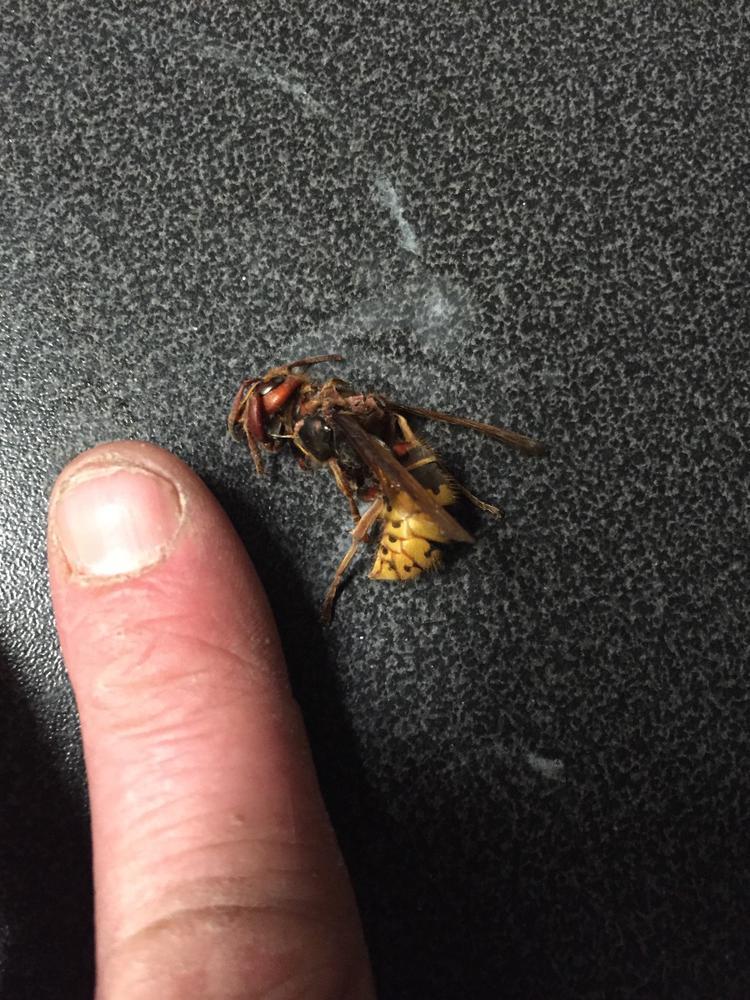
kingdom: Animalia
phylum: Arthropoda
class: Insecta
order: Hymenoptera
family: Vespidae
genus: Vespa
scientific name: Vespa crabro
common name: Hornet
